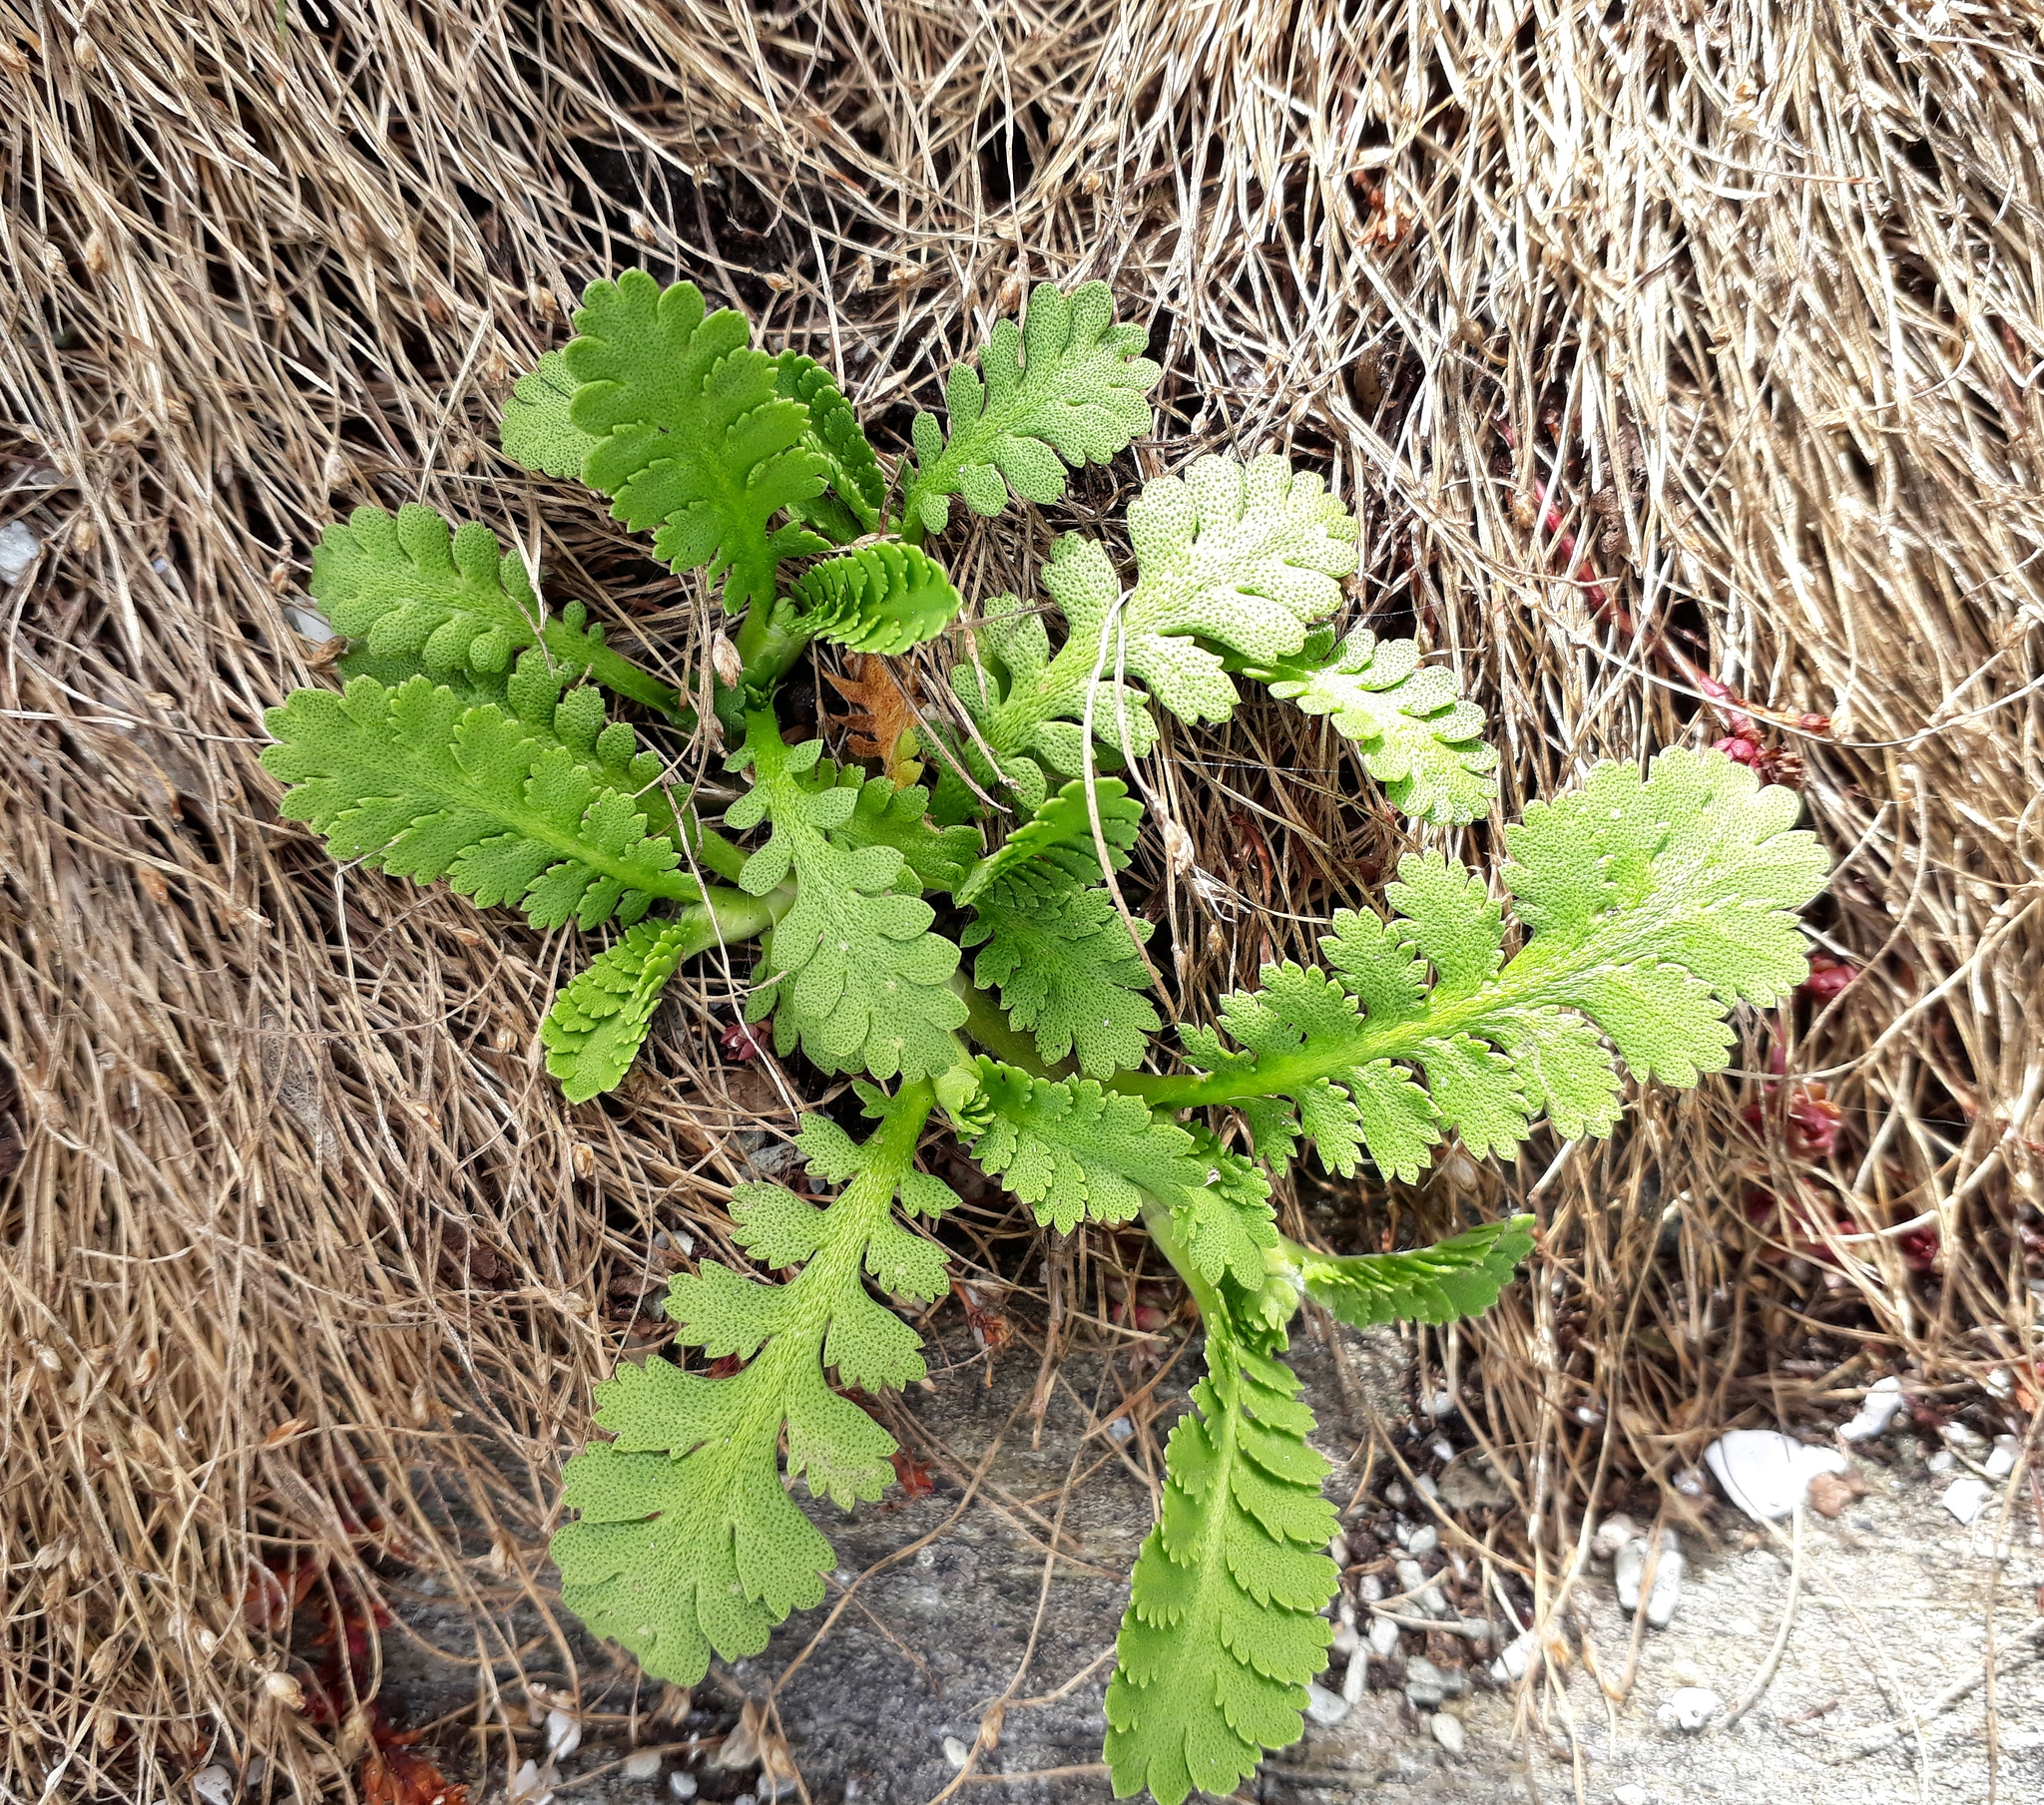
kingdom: Plantae
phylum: Tracheophyta
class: Magnoliopsida
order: Asterales
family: Asteraceae
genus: Leptinella
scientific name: Leptinella potentillina
